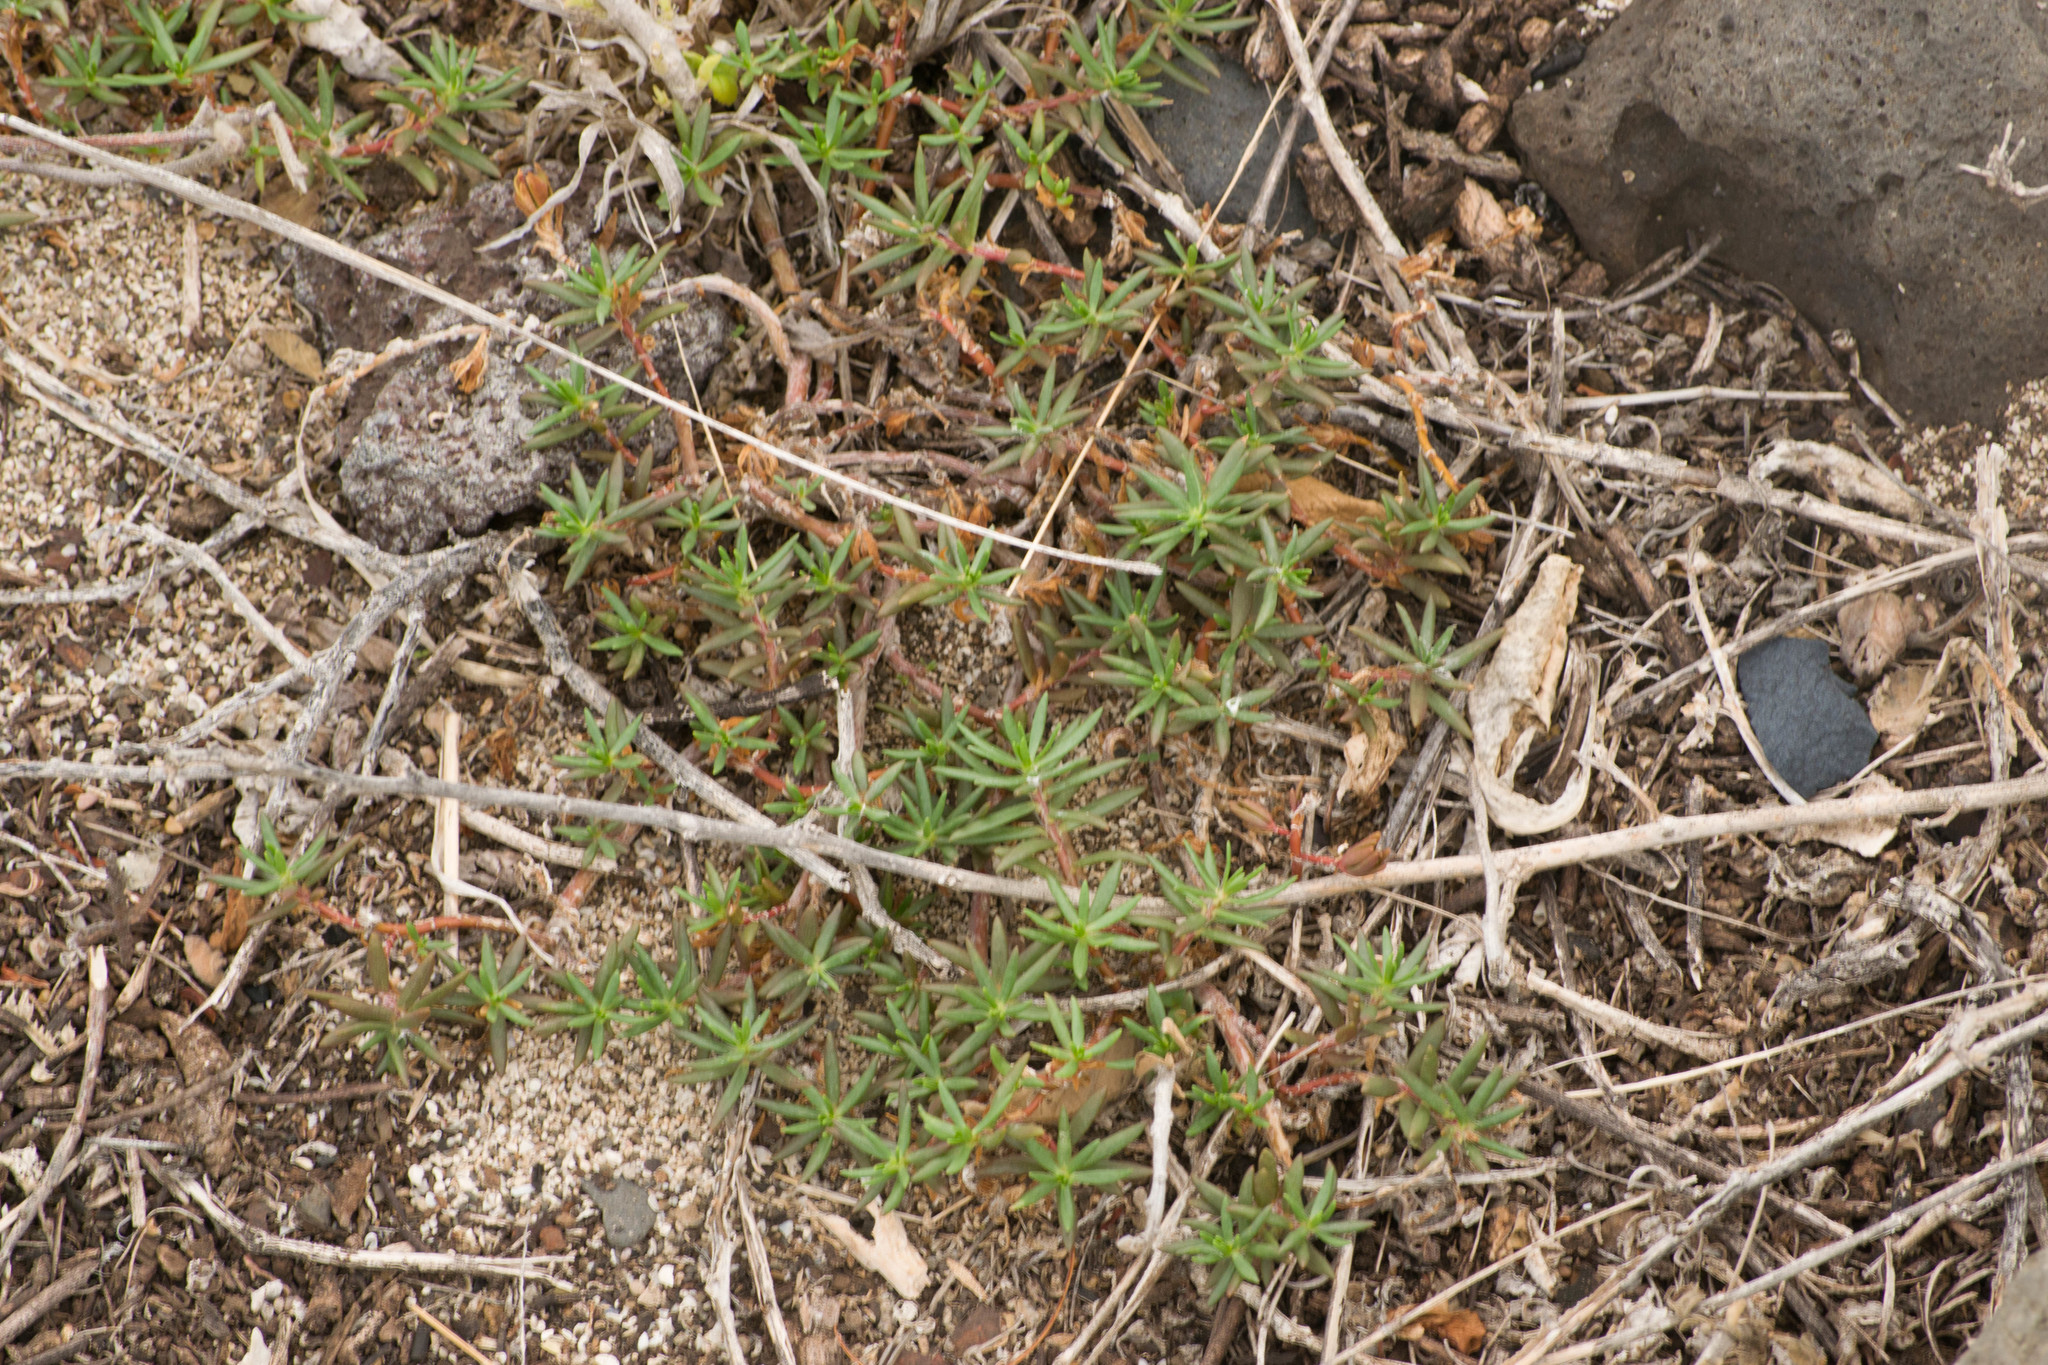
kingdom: Plantae
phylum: Tracheophyta
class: Magnoliopsida
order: Caryophyllales
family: Portulacaceae
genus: Portulaca
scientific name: Portulaca pilosa
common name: Kiss me quick
